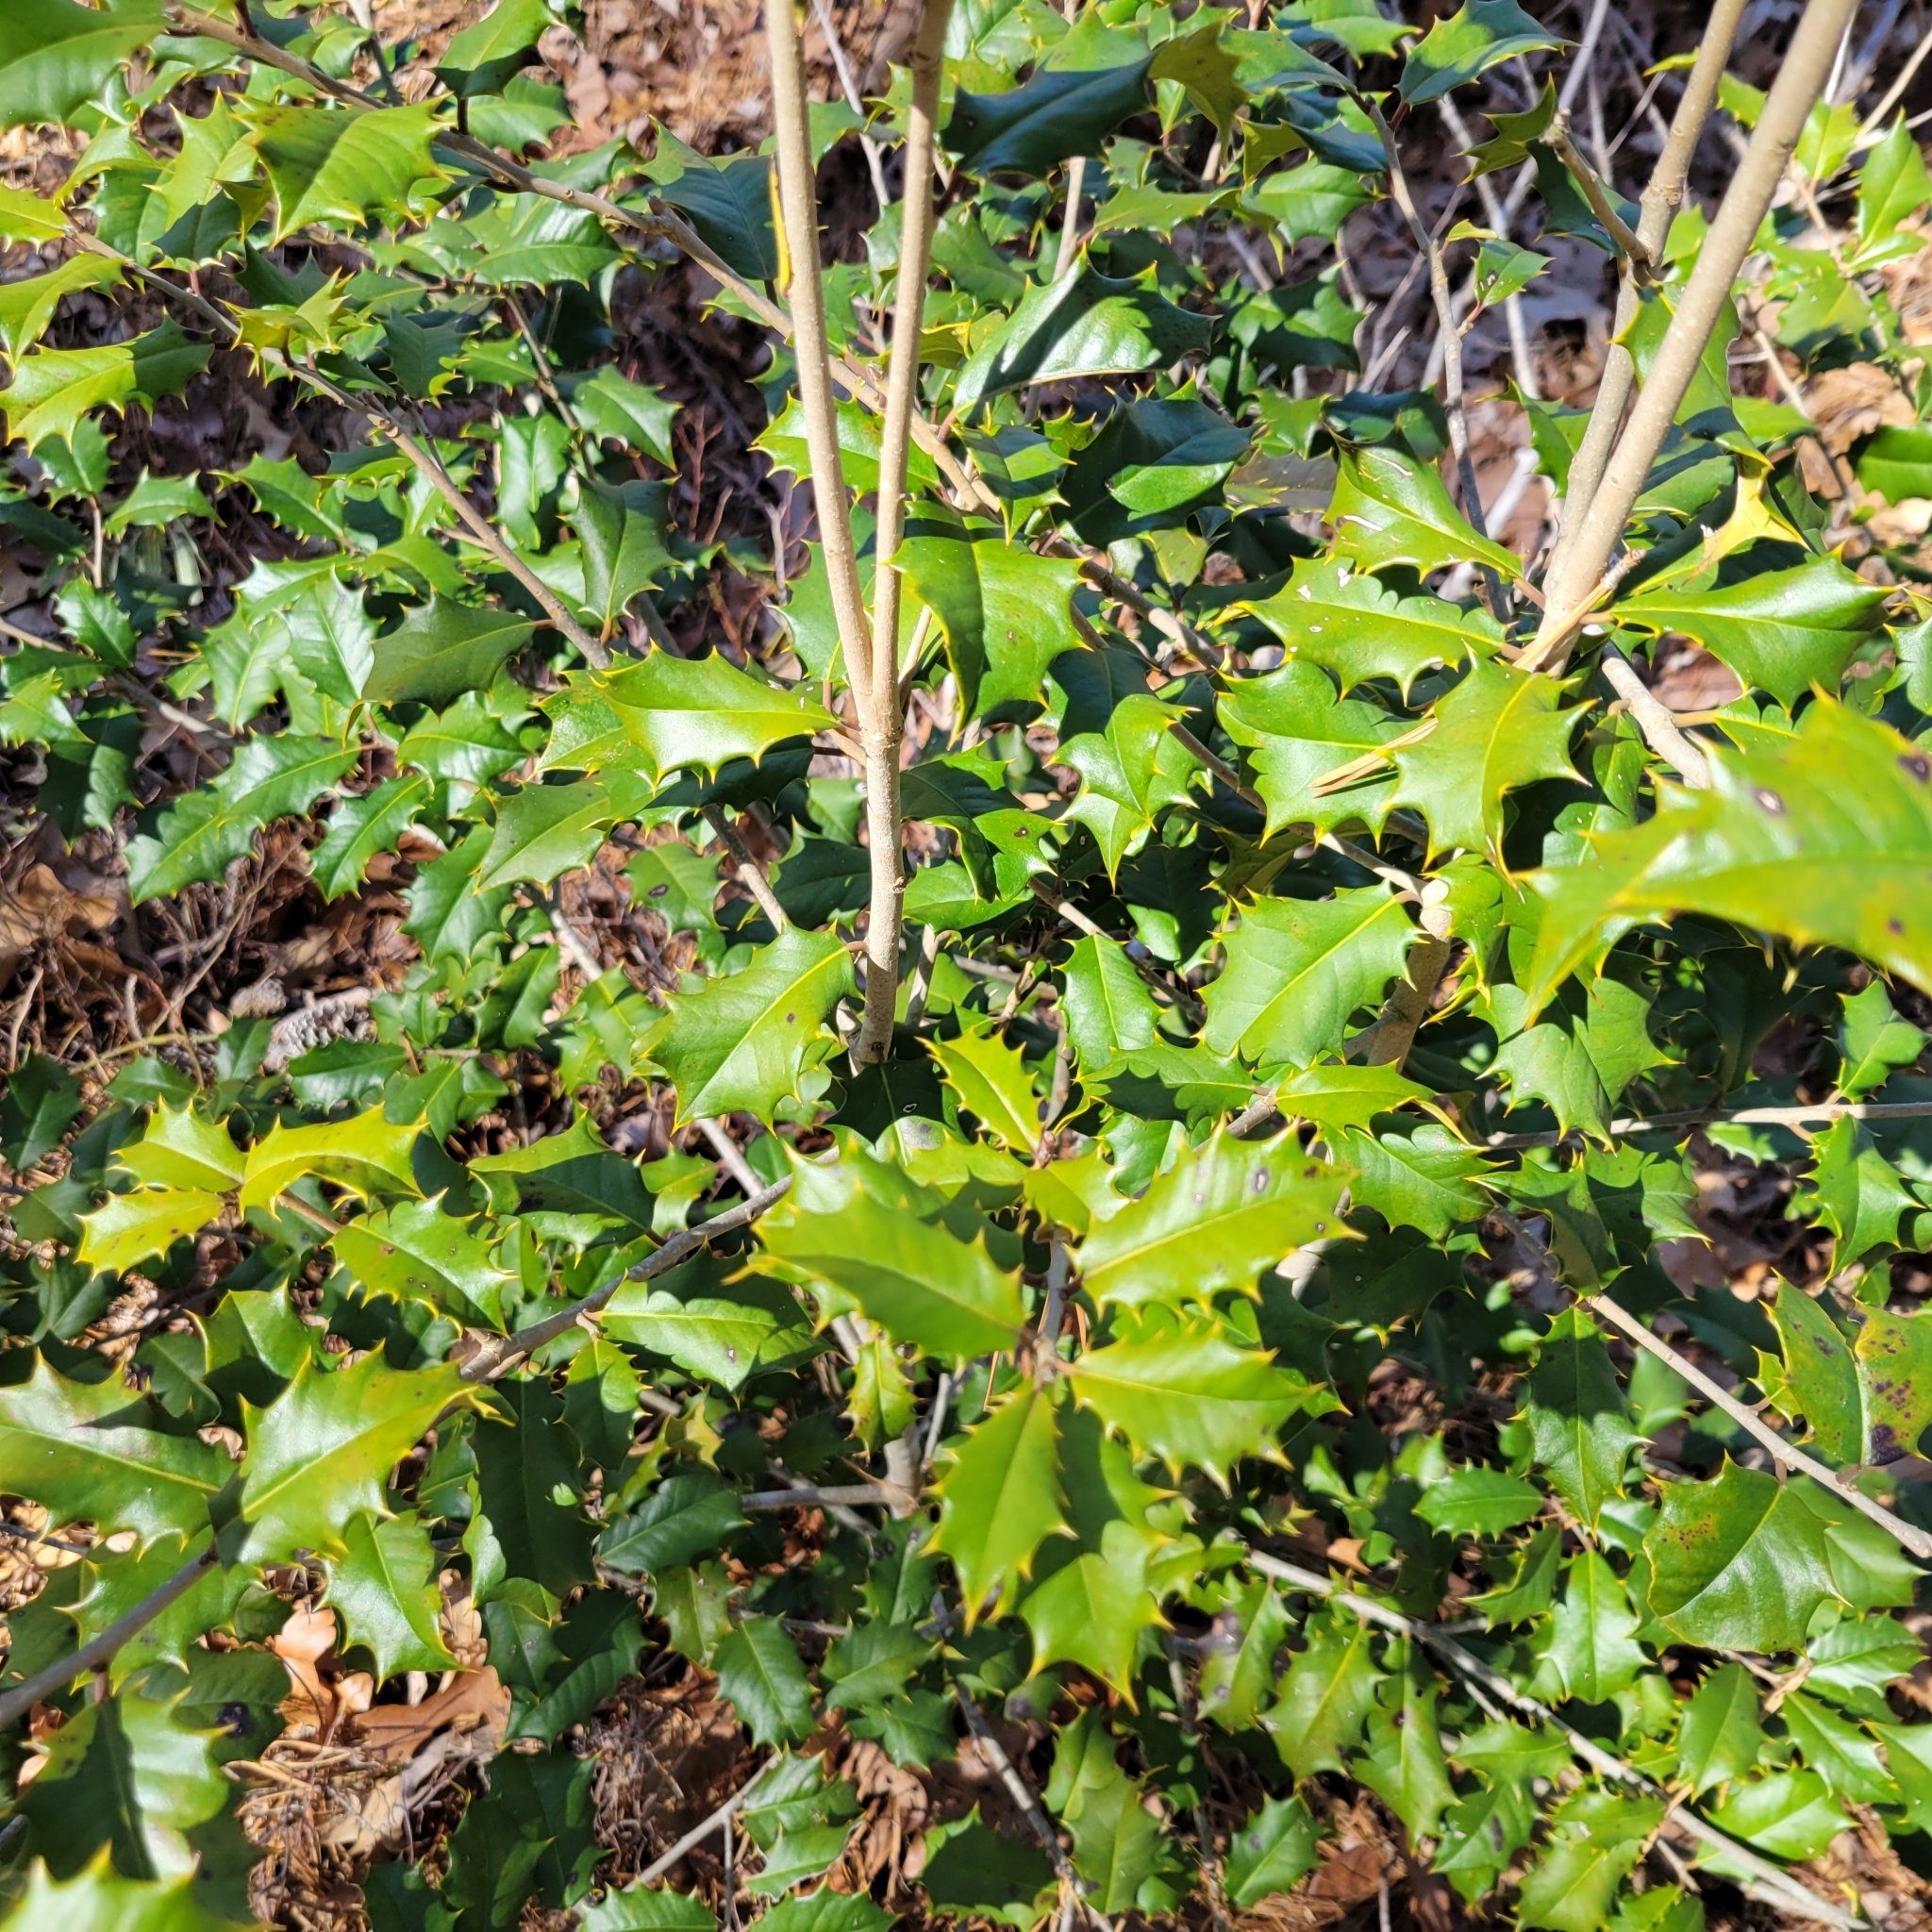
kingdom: Plantae
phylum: Tracheophyta
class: Magnoliopsida
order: Aquifoliales
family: Aquifoliaceae
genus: Ilex
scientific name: Ilex opaca
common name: American holly
